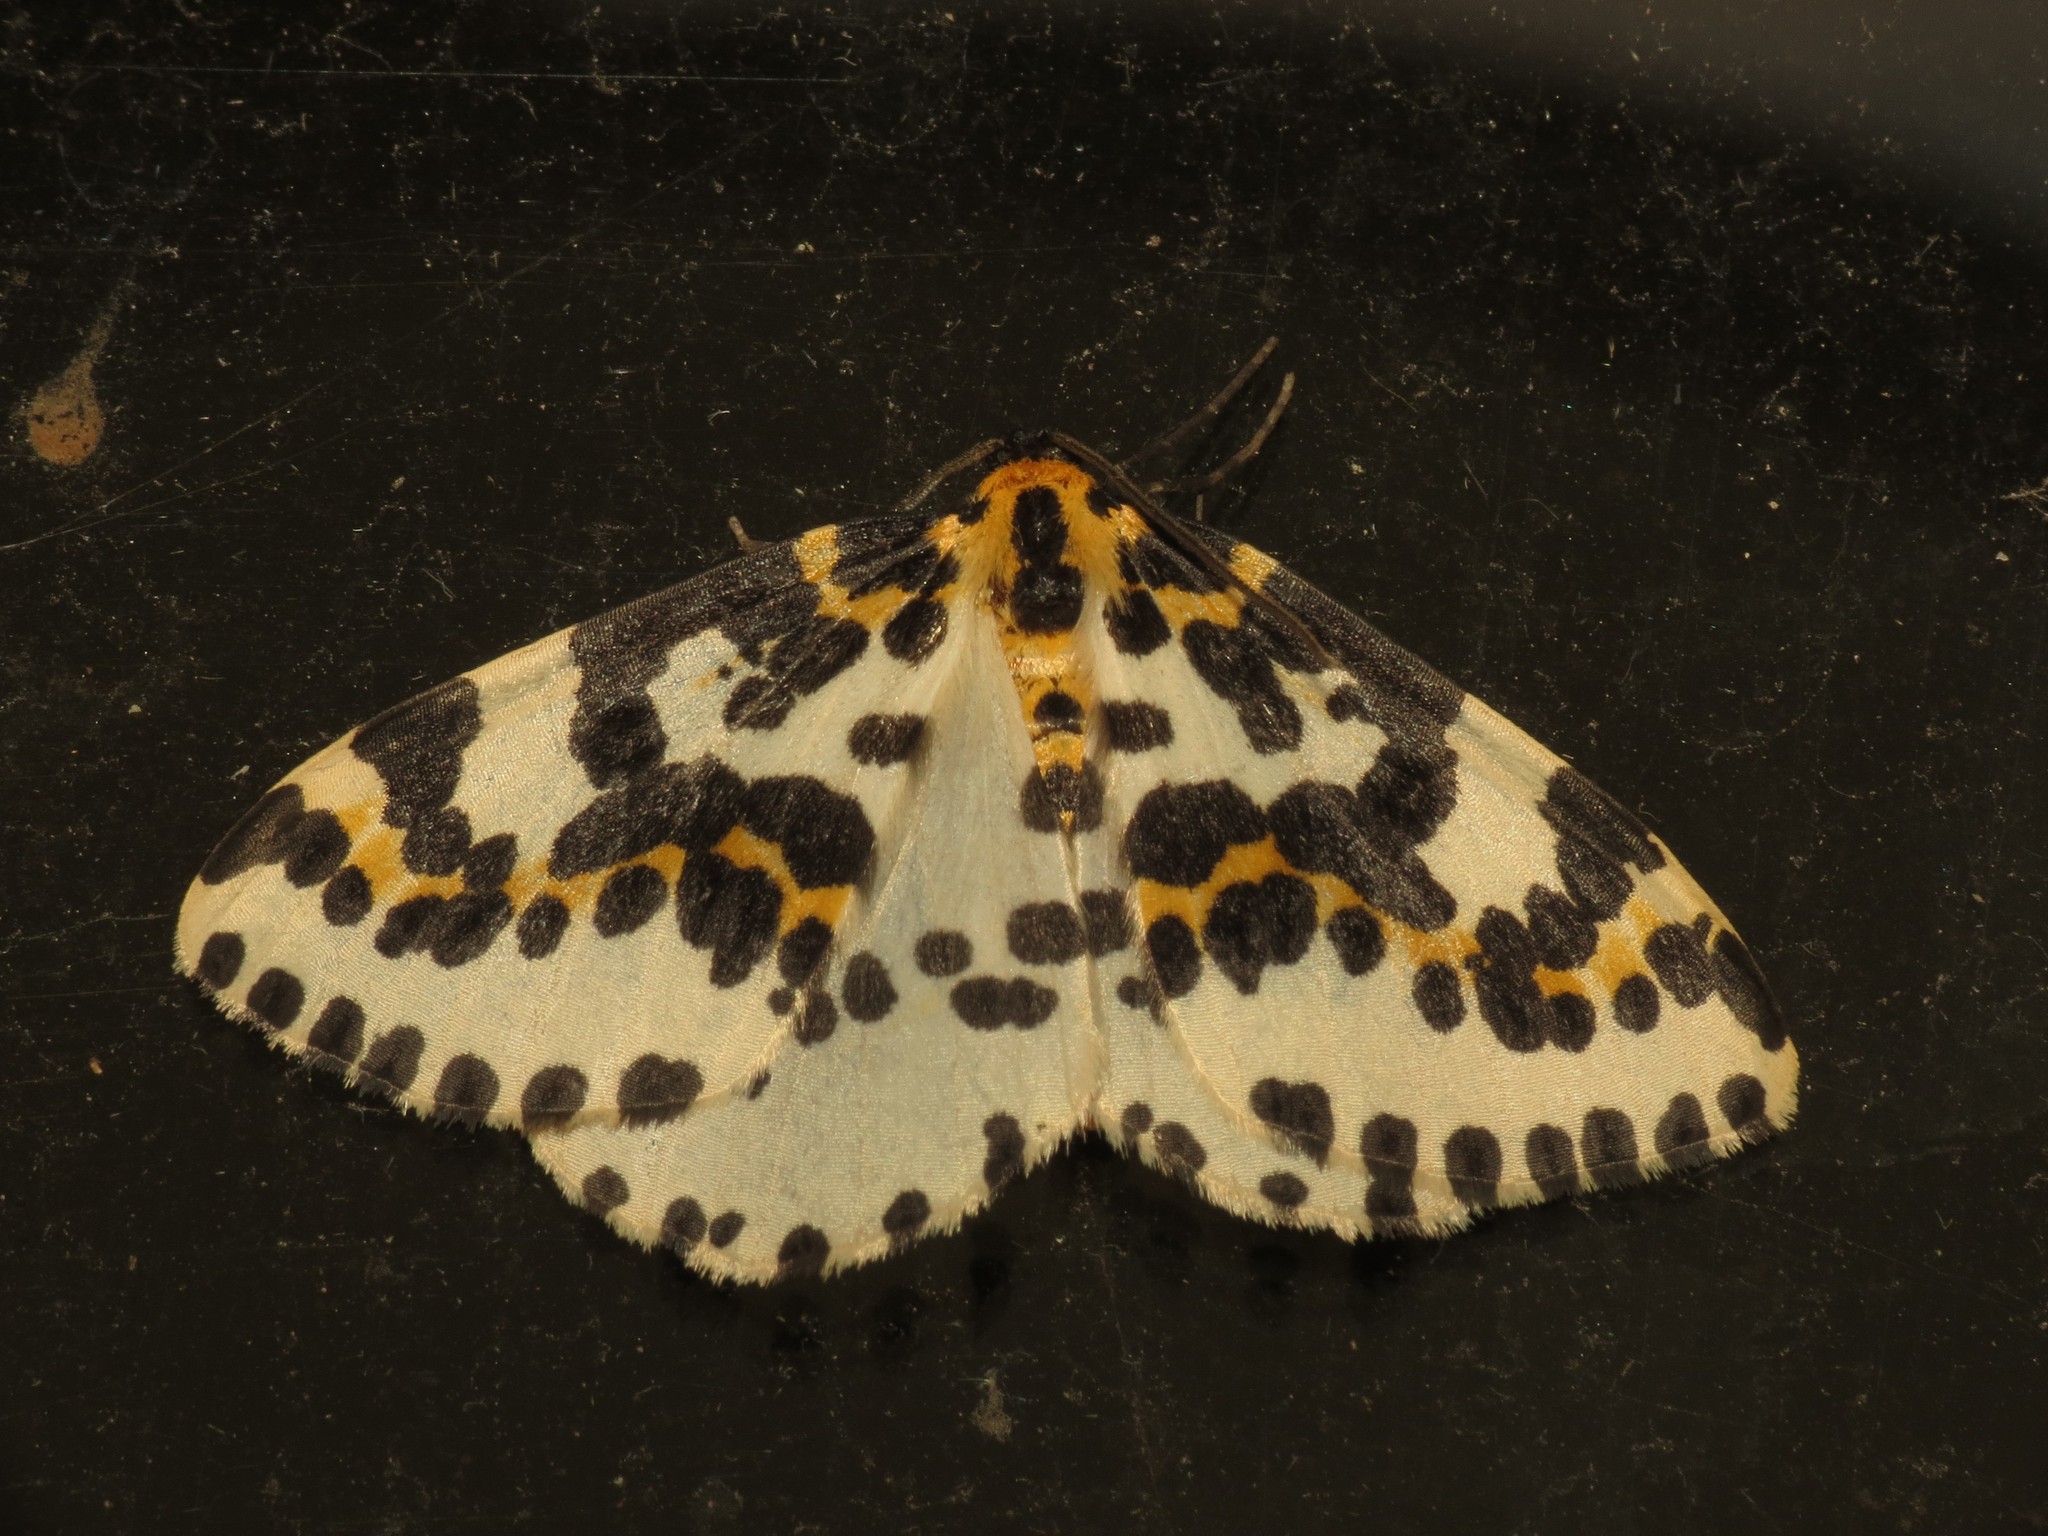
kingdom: Animalia
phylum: Arthropoda
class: Insecta
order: Lepidoptera
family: Geometridae
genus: Abraxas
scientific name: Abraxas grossulariata
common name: Magpie
